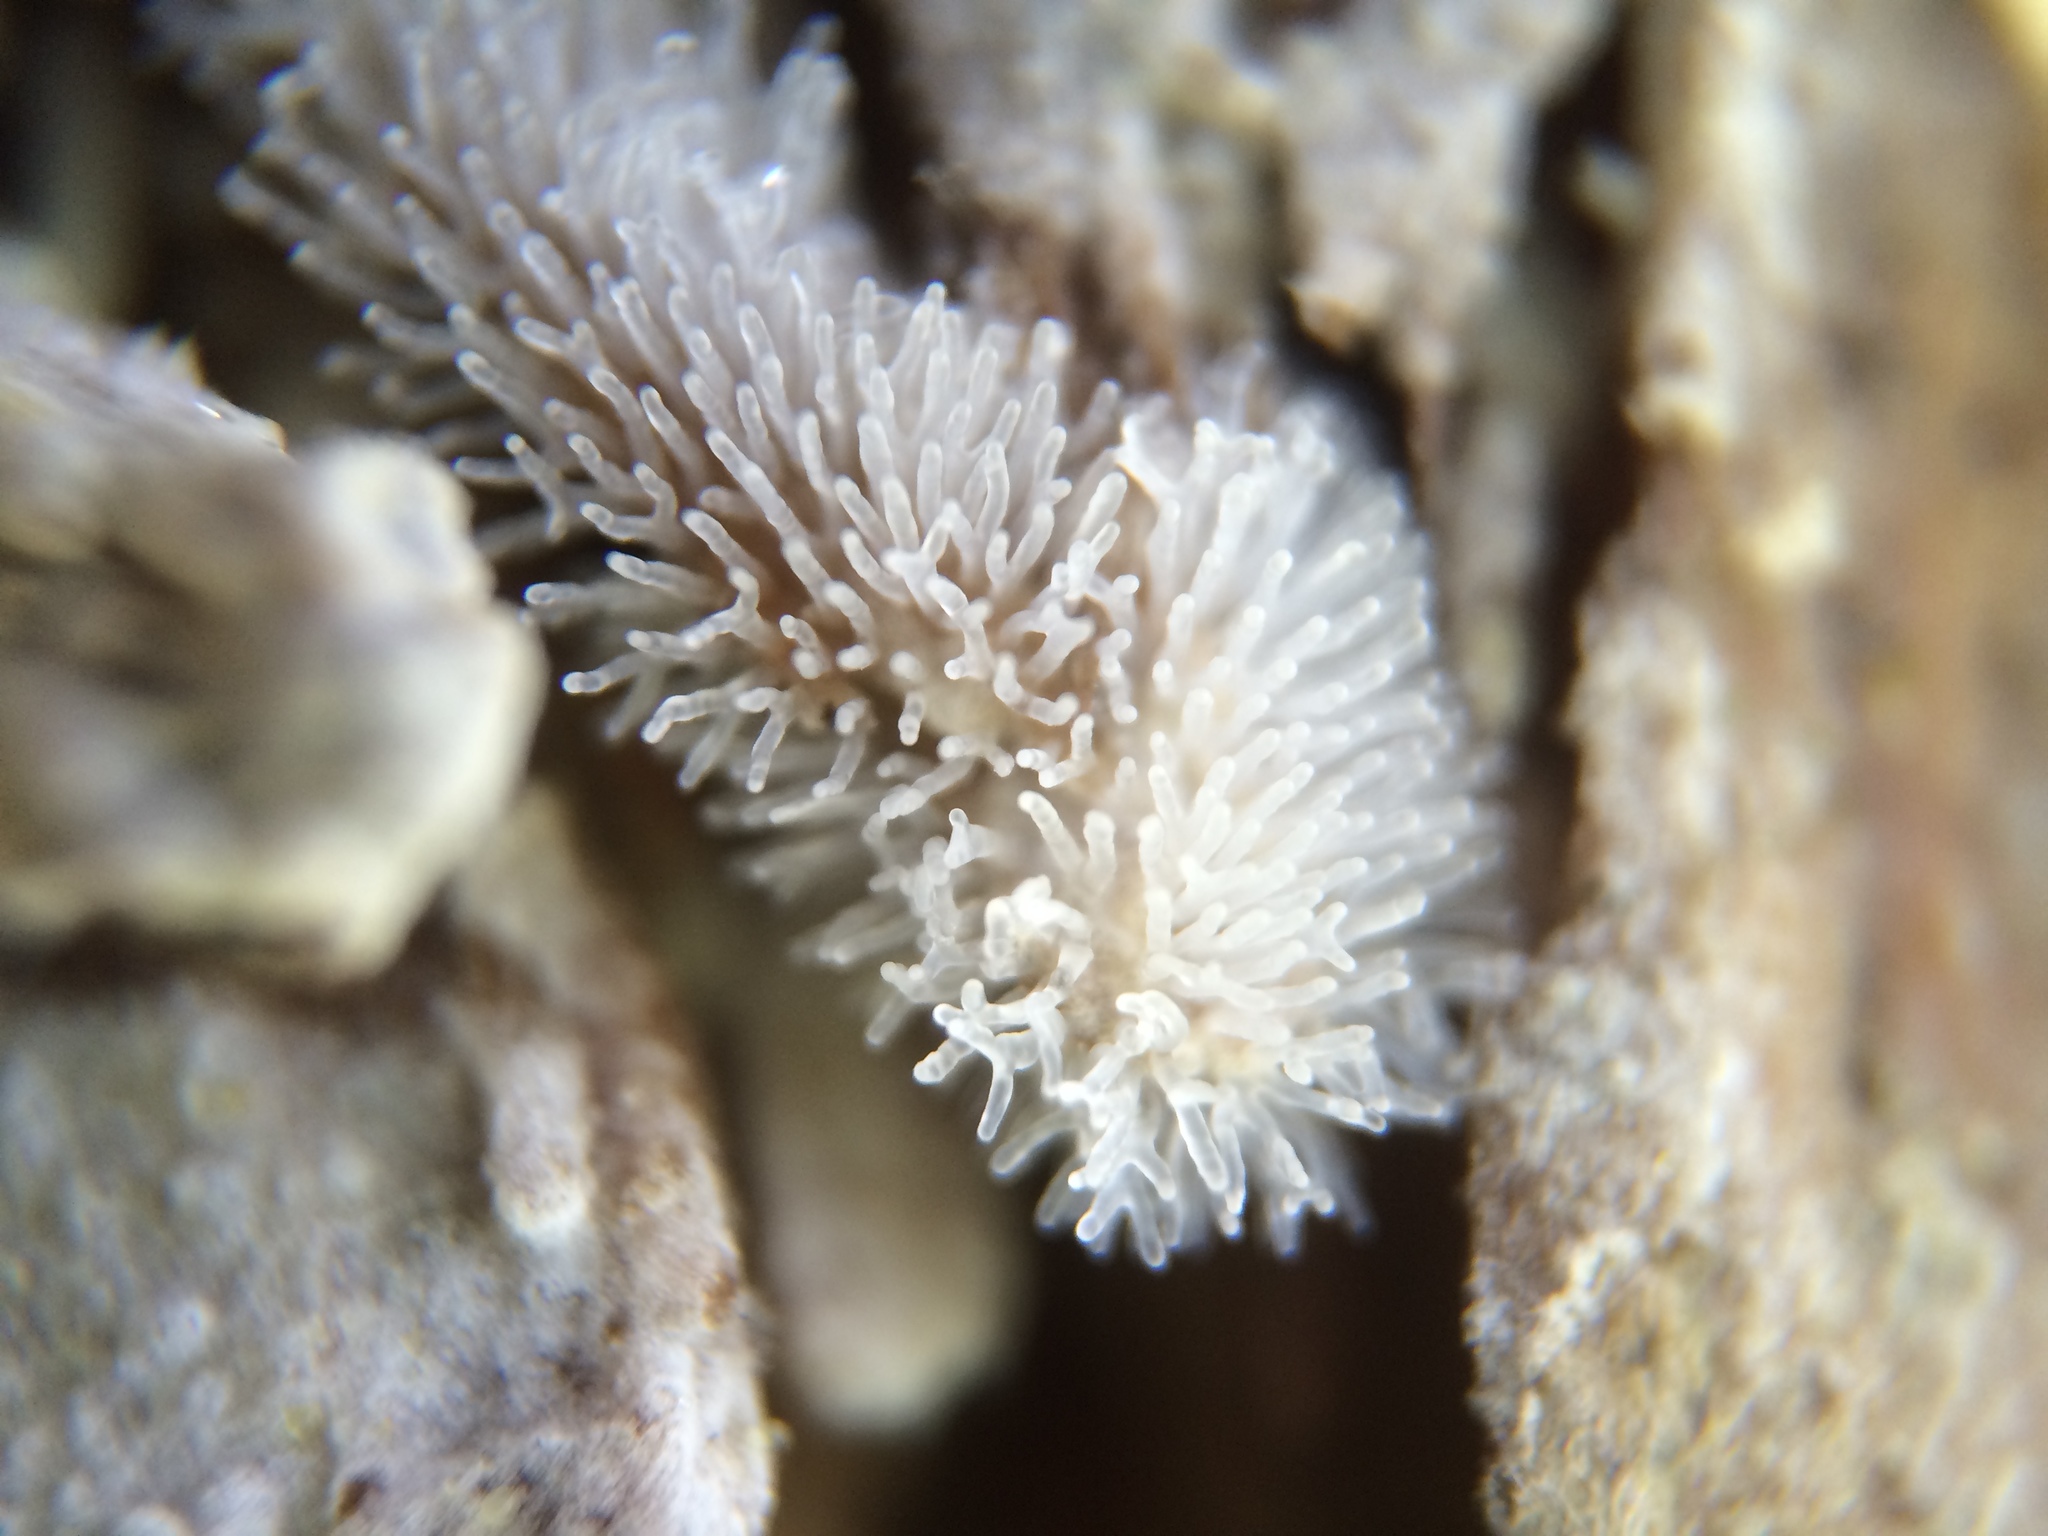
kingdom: Protozoa
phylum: Mycetozoa
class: Protosteliomycetes
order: Ceratiomyxales
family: Ceratiomyxaceae
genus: Ceratiomyxa
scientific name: Ceratiomyxa fruticulosa
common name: Honeycomb coral slime mold
